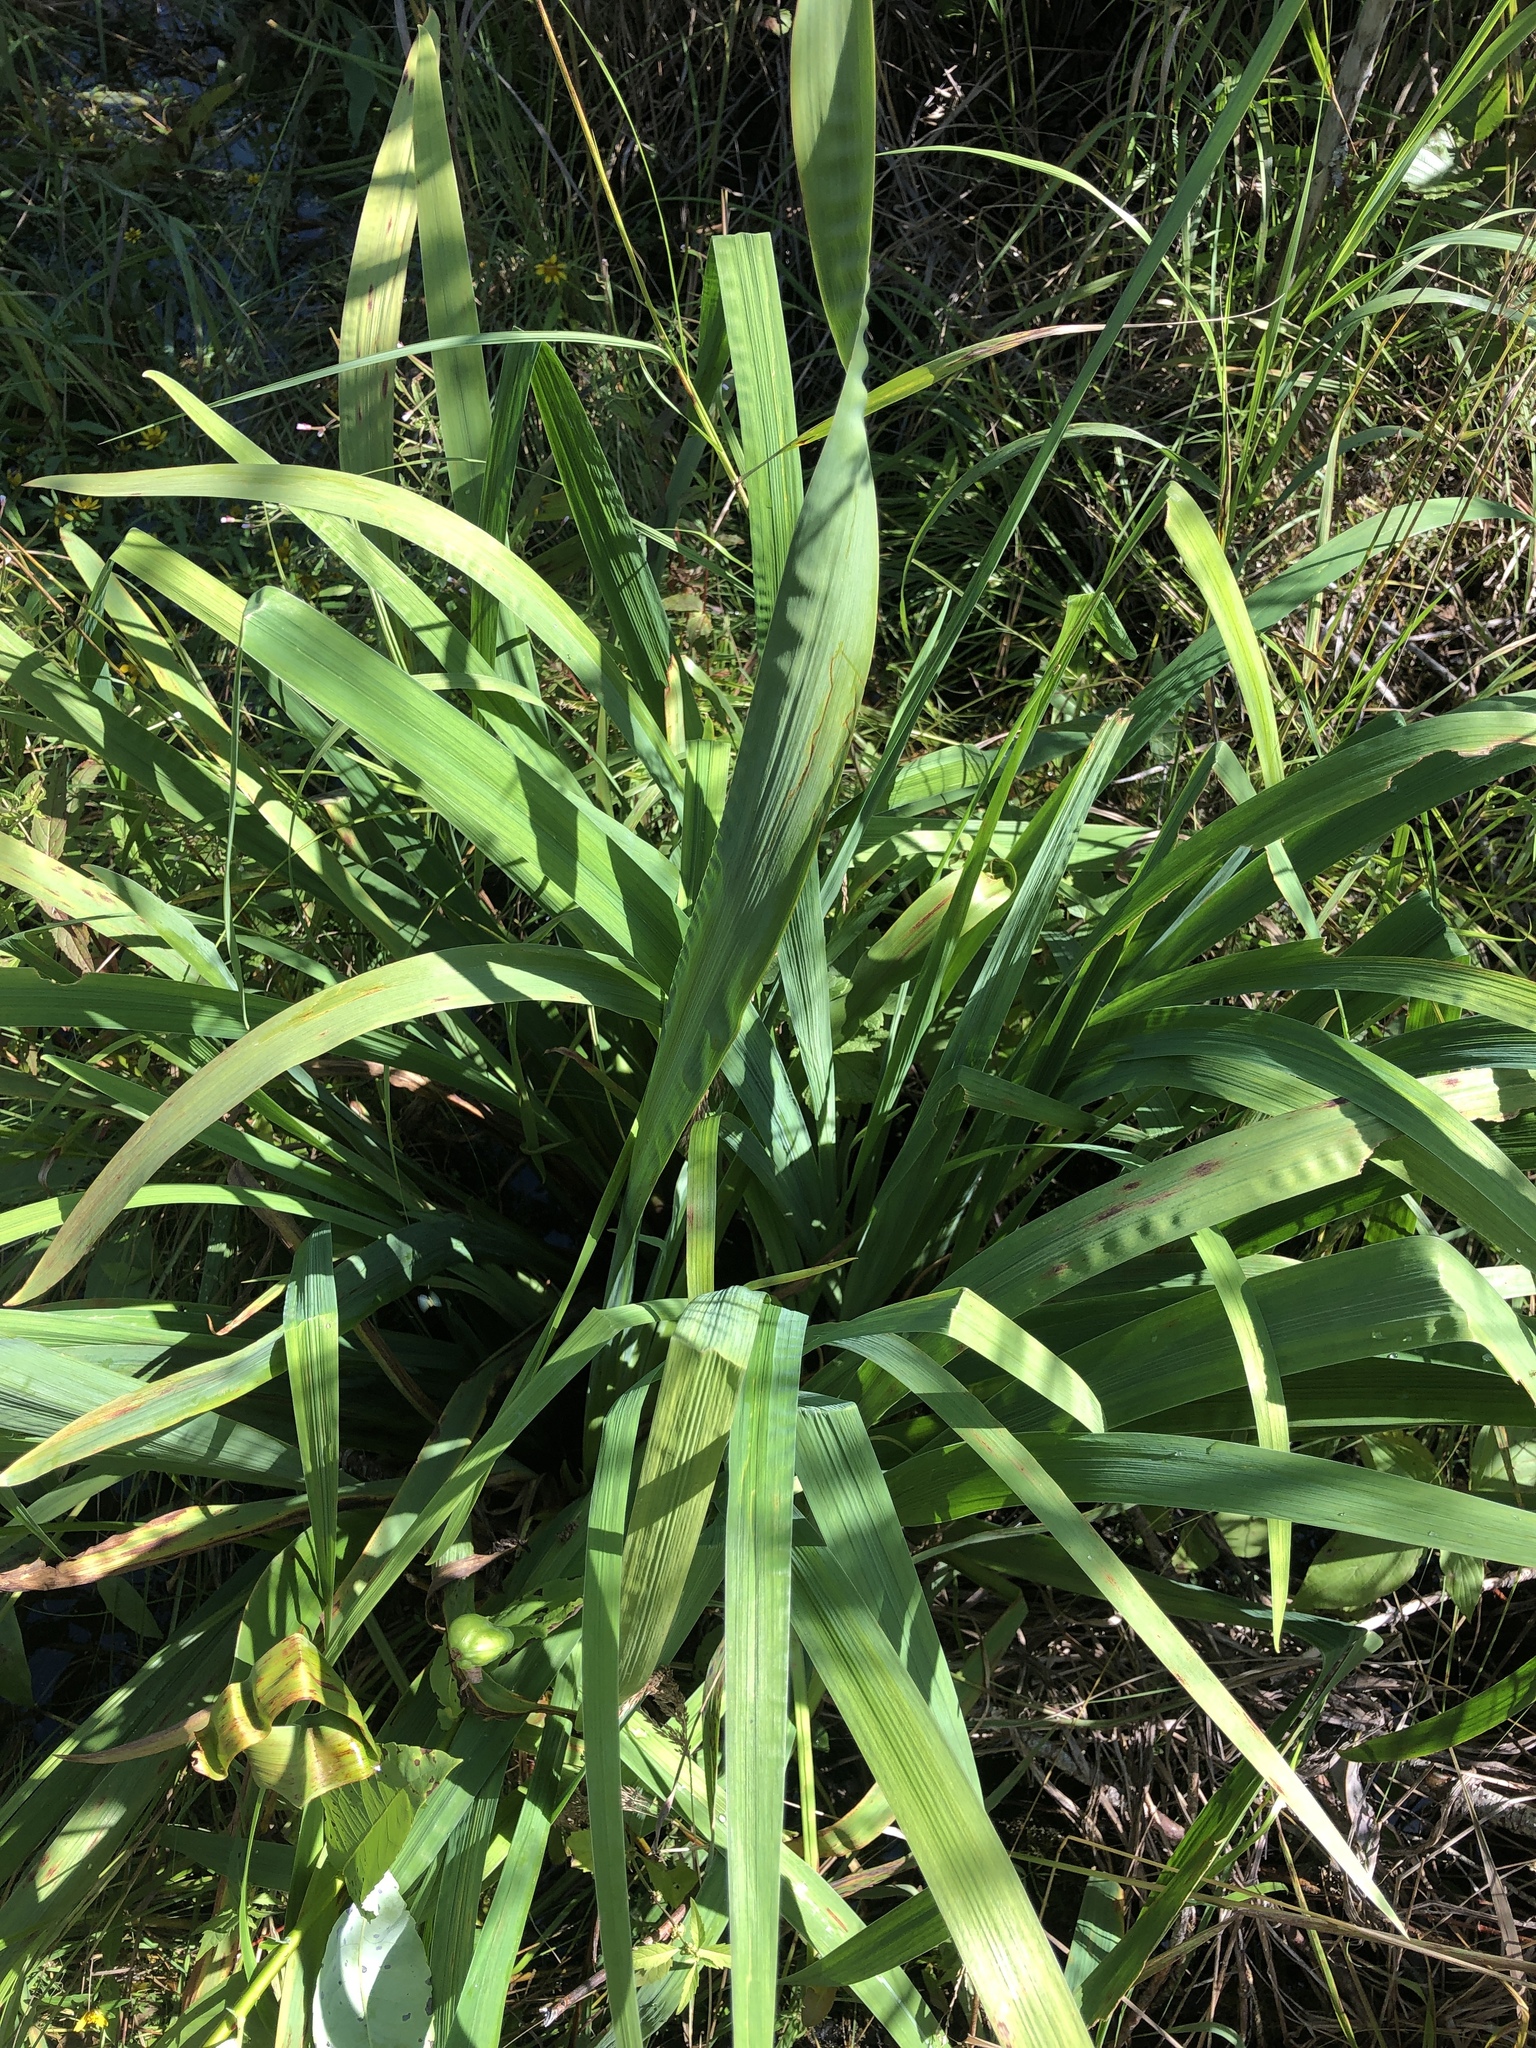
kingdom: Plantae
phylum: Tracheophyta
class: Liliopsida
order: Asparagales
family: Iridaceae
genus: Iris
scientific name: Iris versicolor
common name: Purple iris
